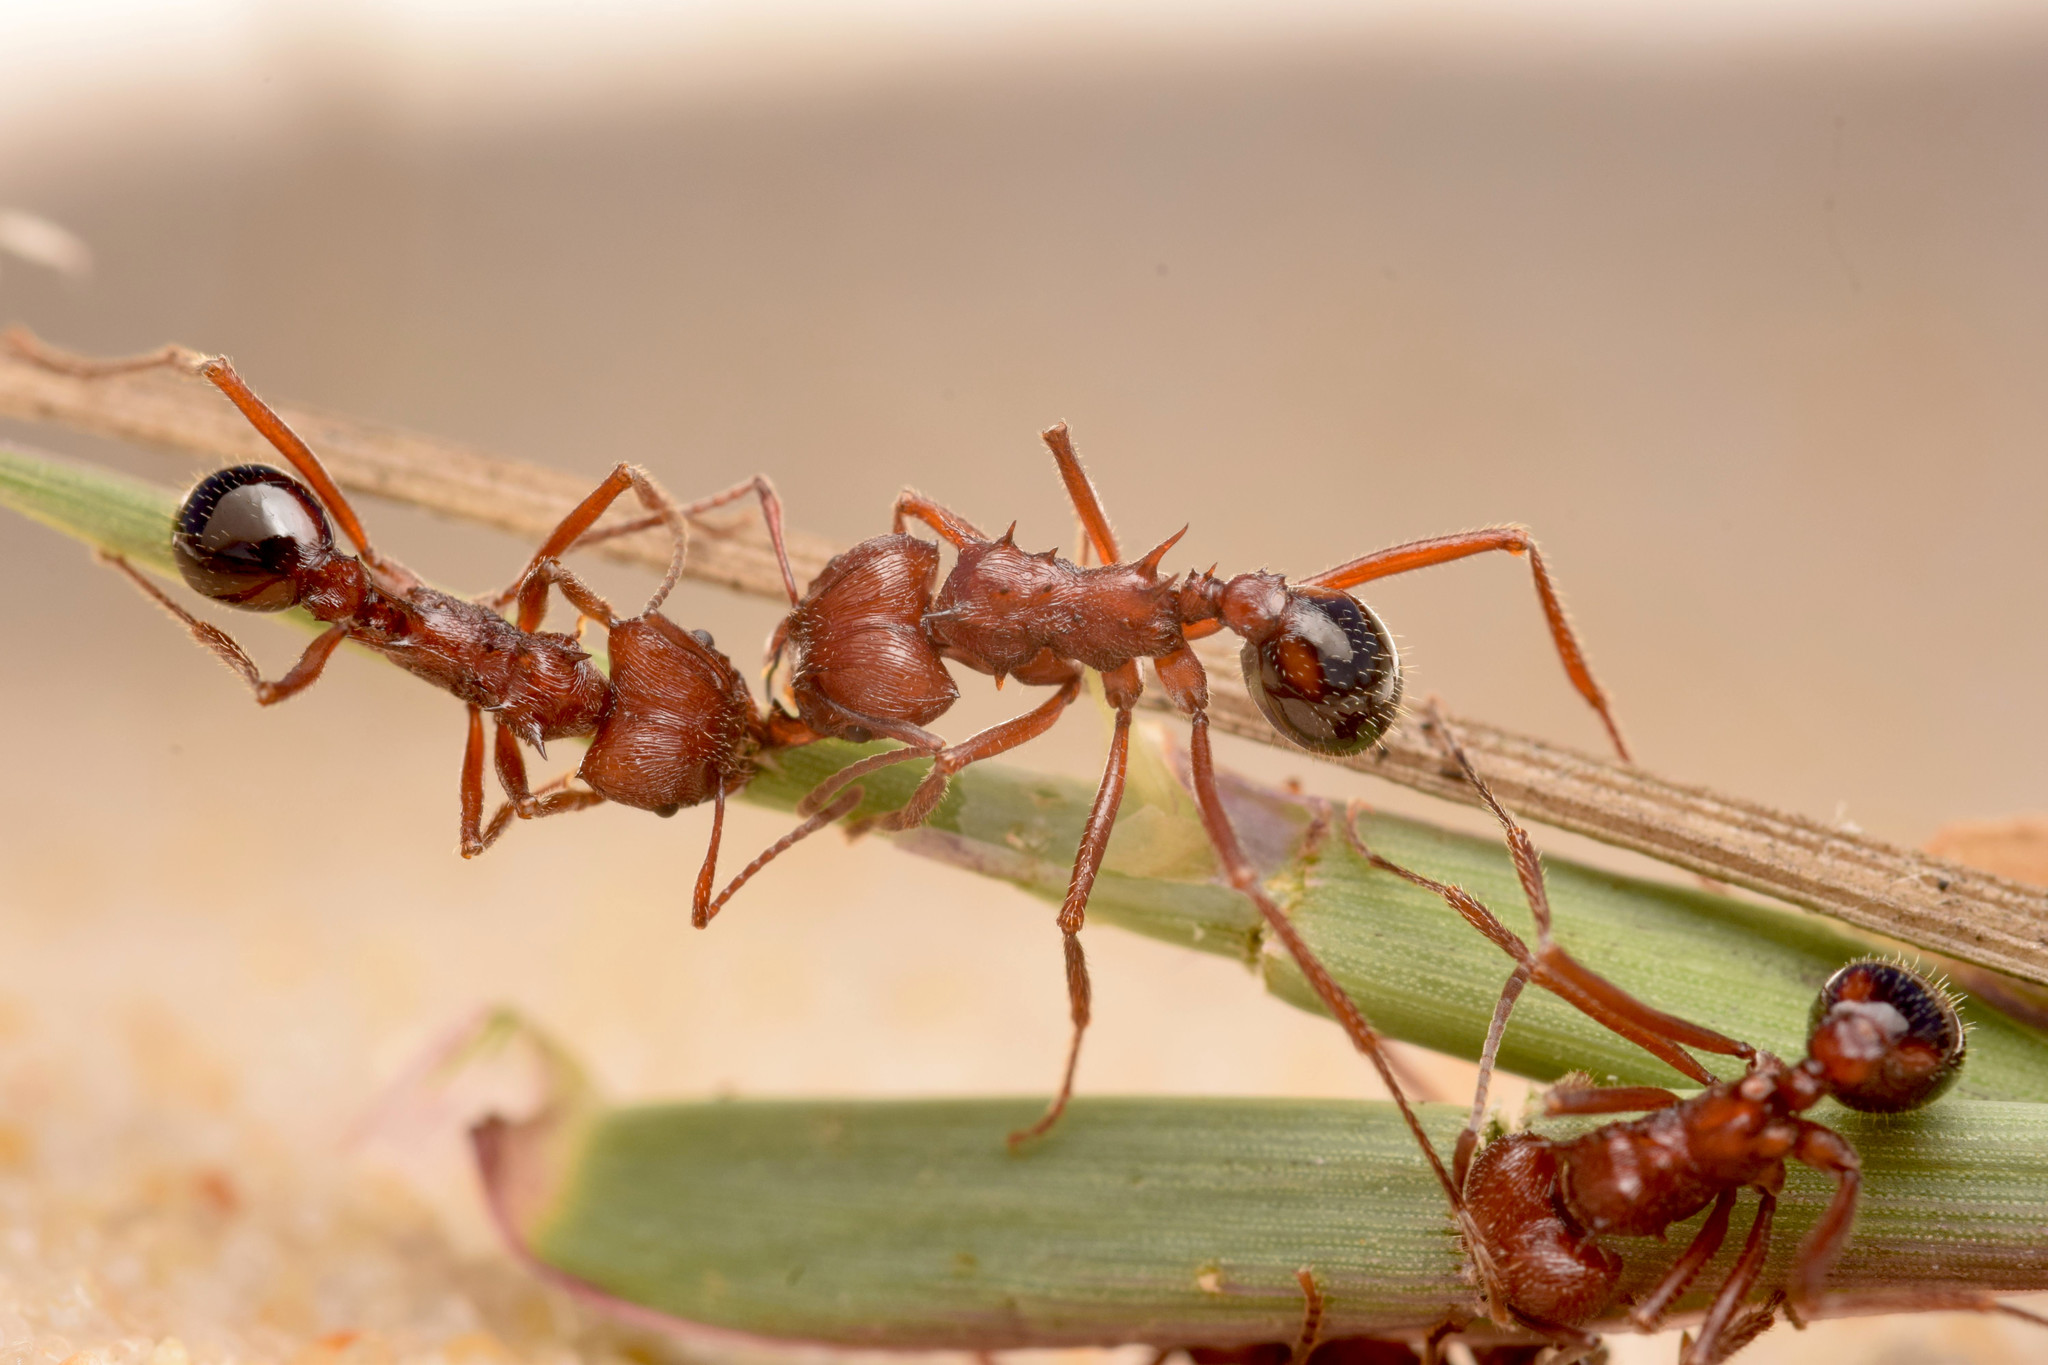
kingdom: Animalia
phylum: Arthropoda
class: Insecta
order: Hymenoptera
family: Formicidae
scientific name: Formicidae
